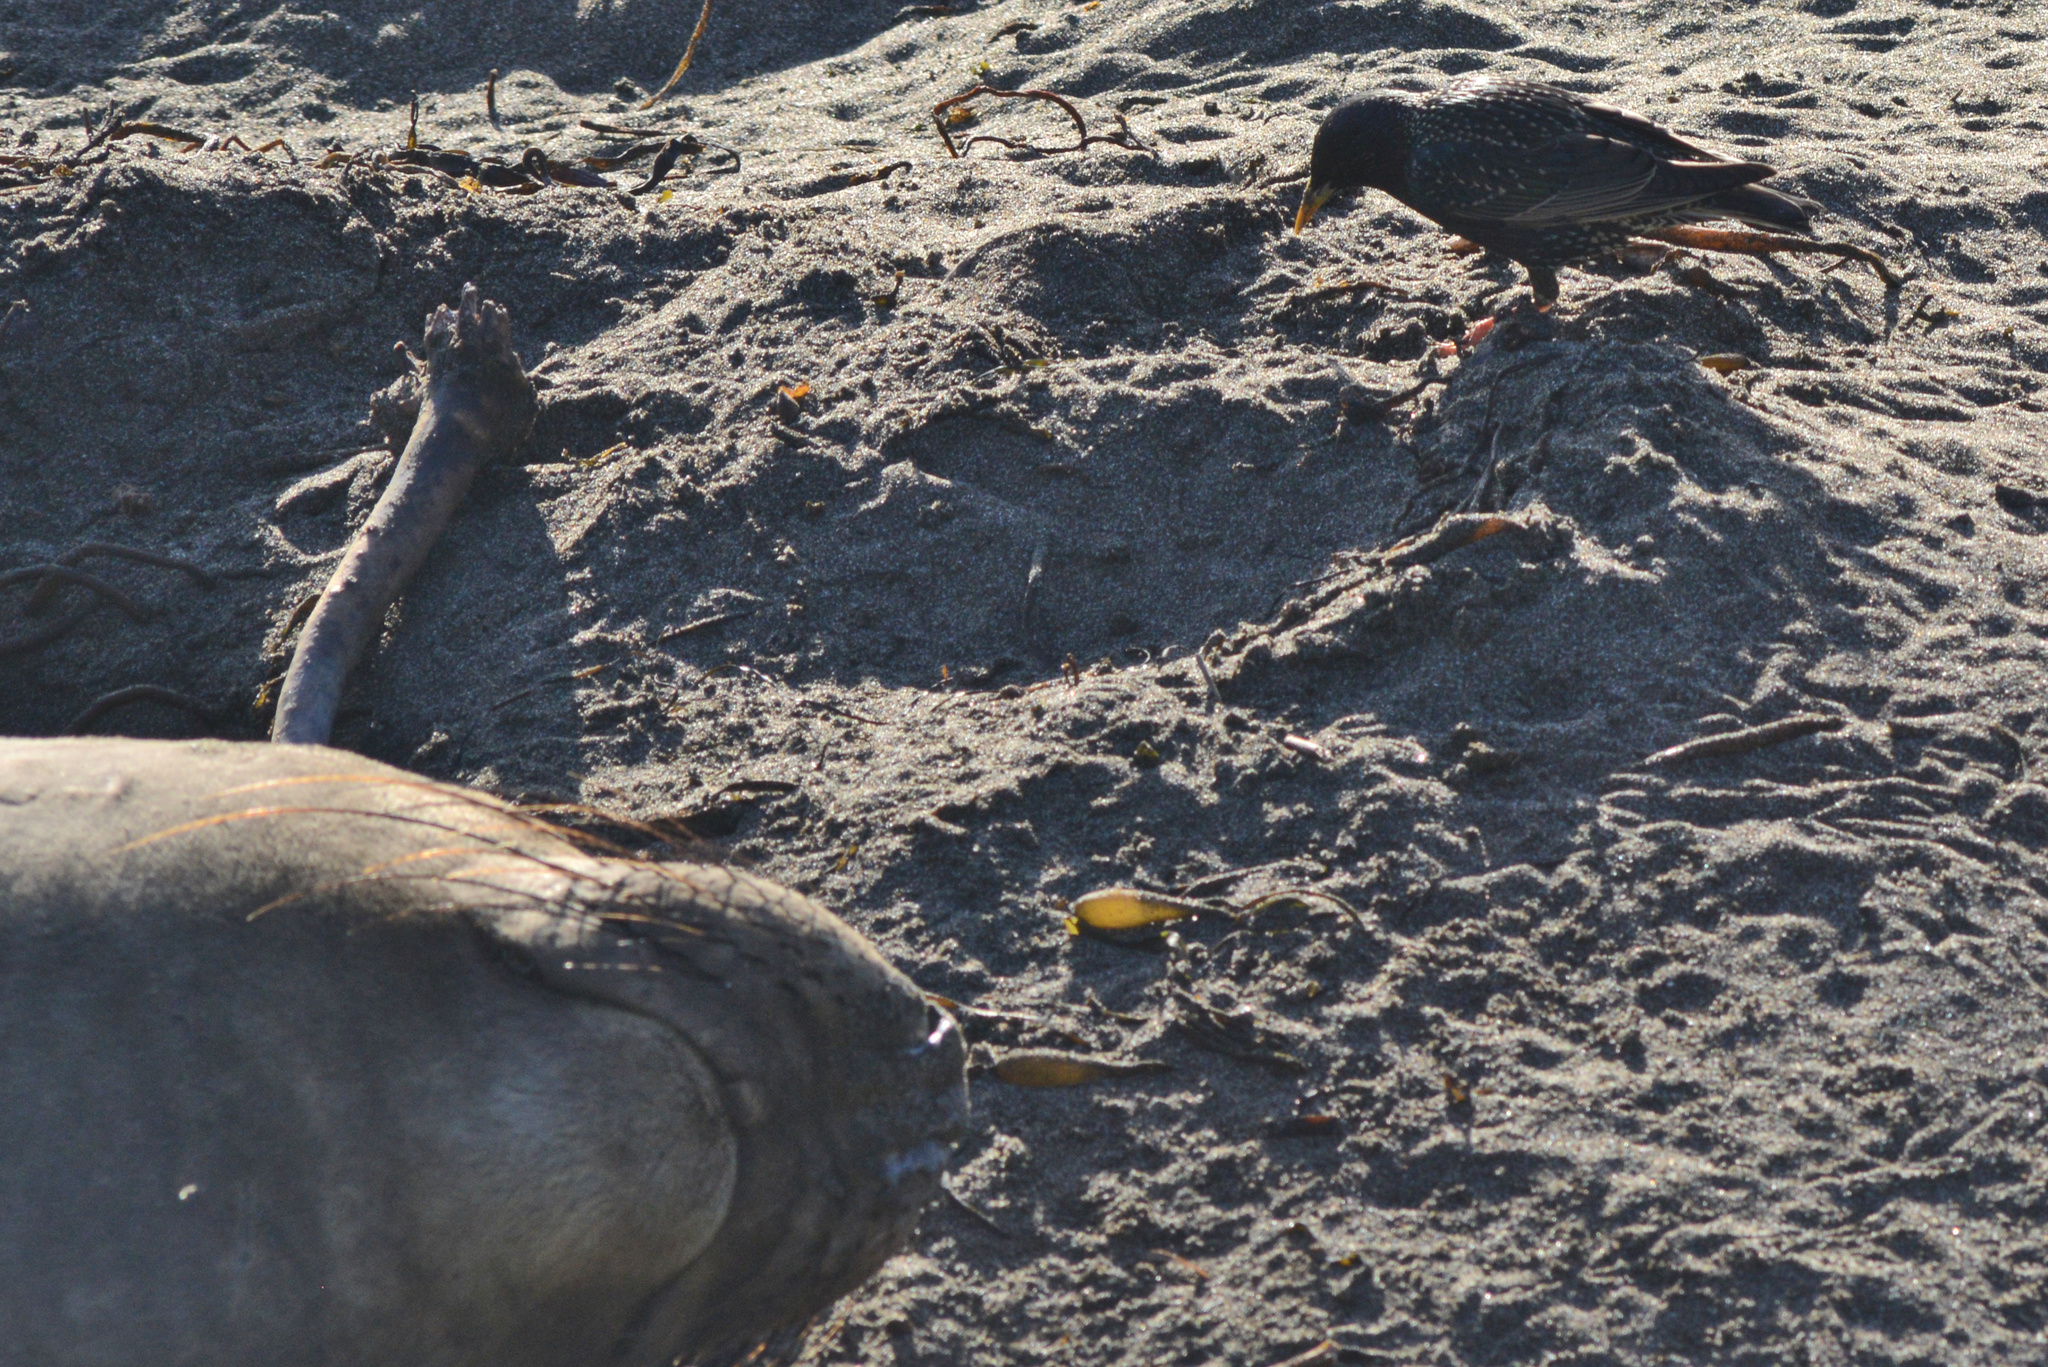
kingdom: Animalia
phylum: Chordata
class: Aves
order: Passeriformes
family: Sturnidae
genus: Sturnus
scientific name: Sturnus vulgaris
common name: Common starling
